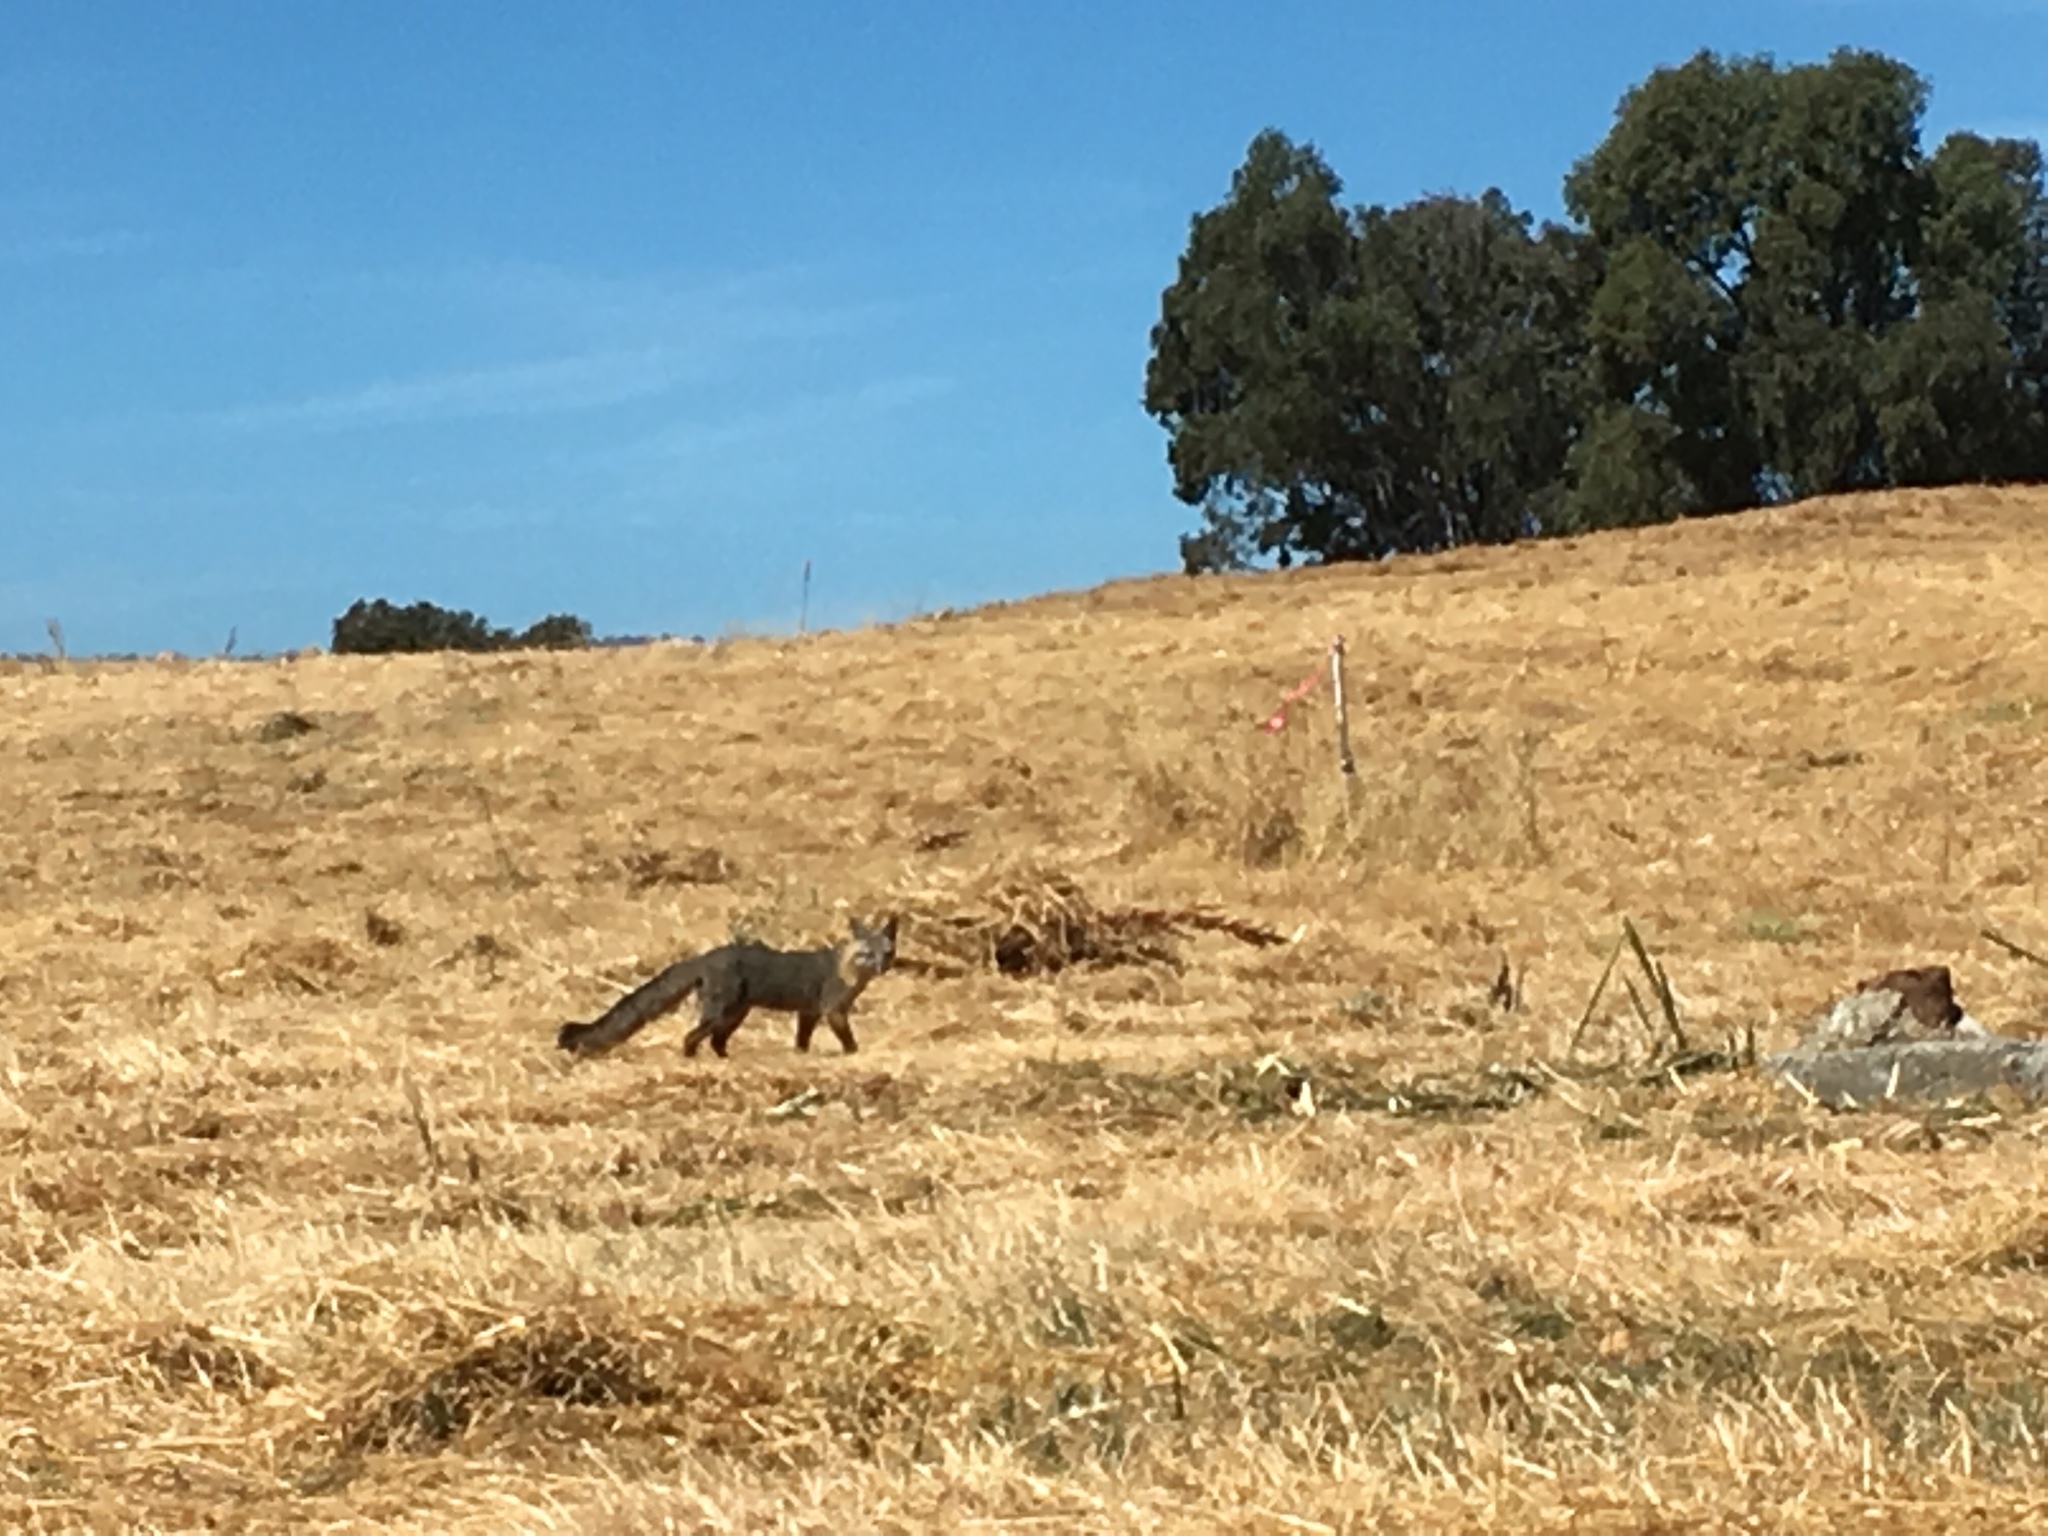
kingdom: Animalia
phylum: Chordata
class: Mammalia
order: Carnivora
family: Canidae
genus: Urocyon
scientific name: Urocyon cinereoargenteus
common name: Gray fox
